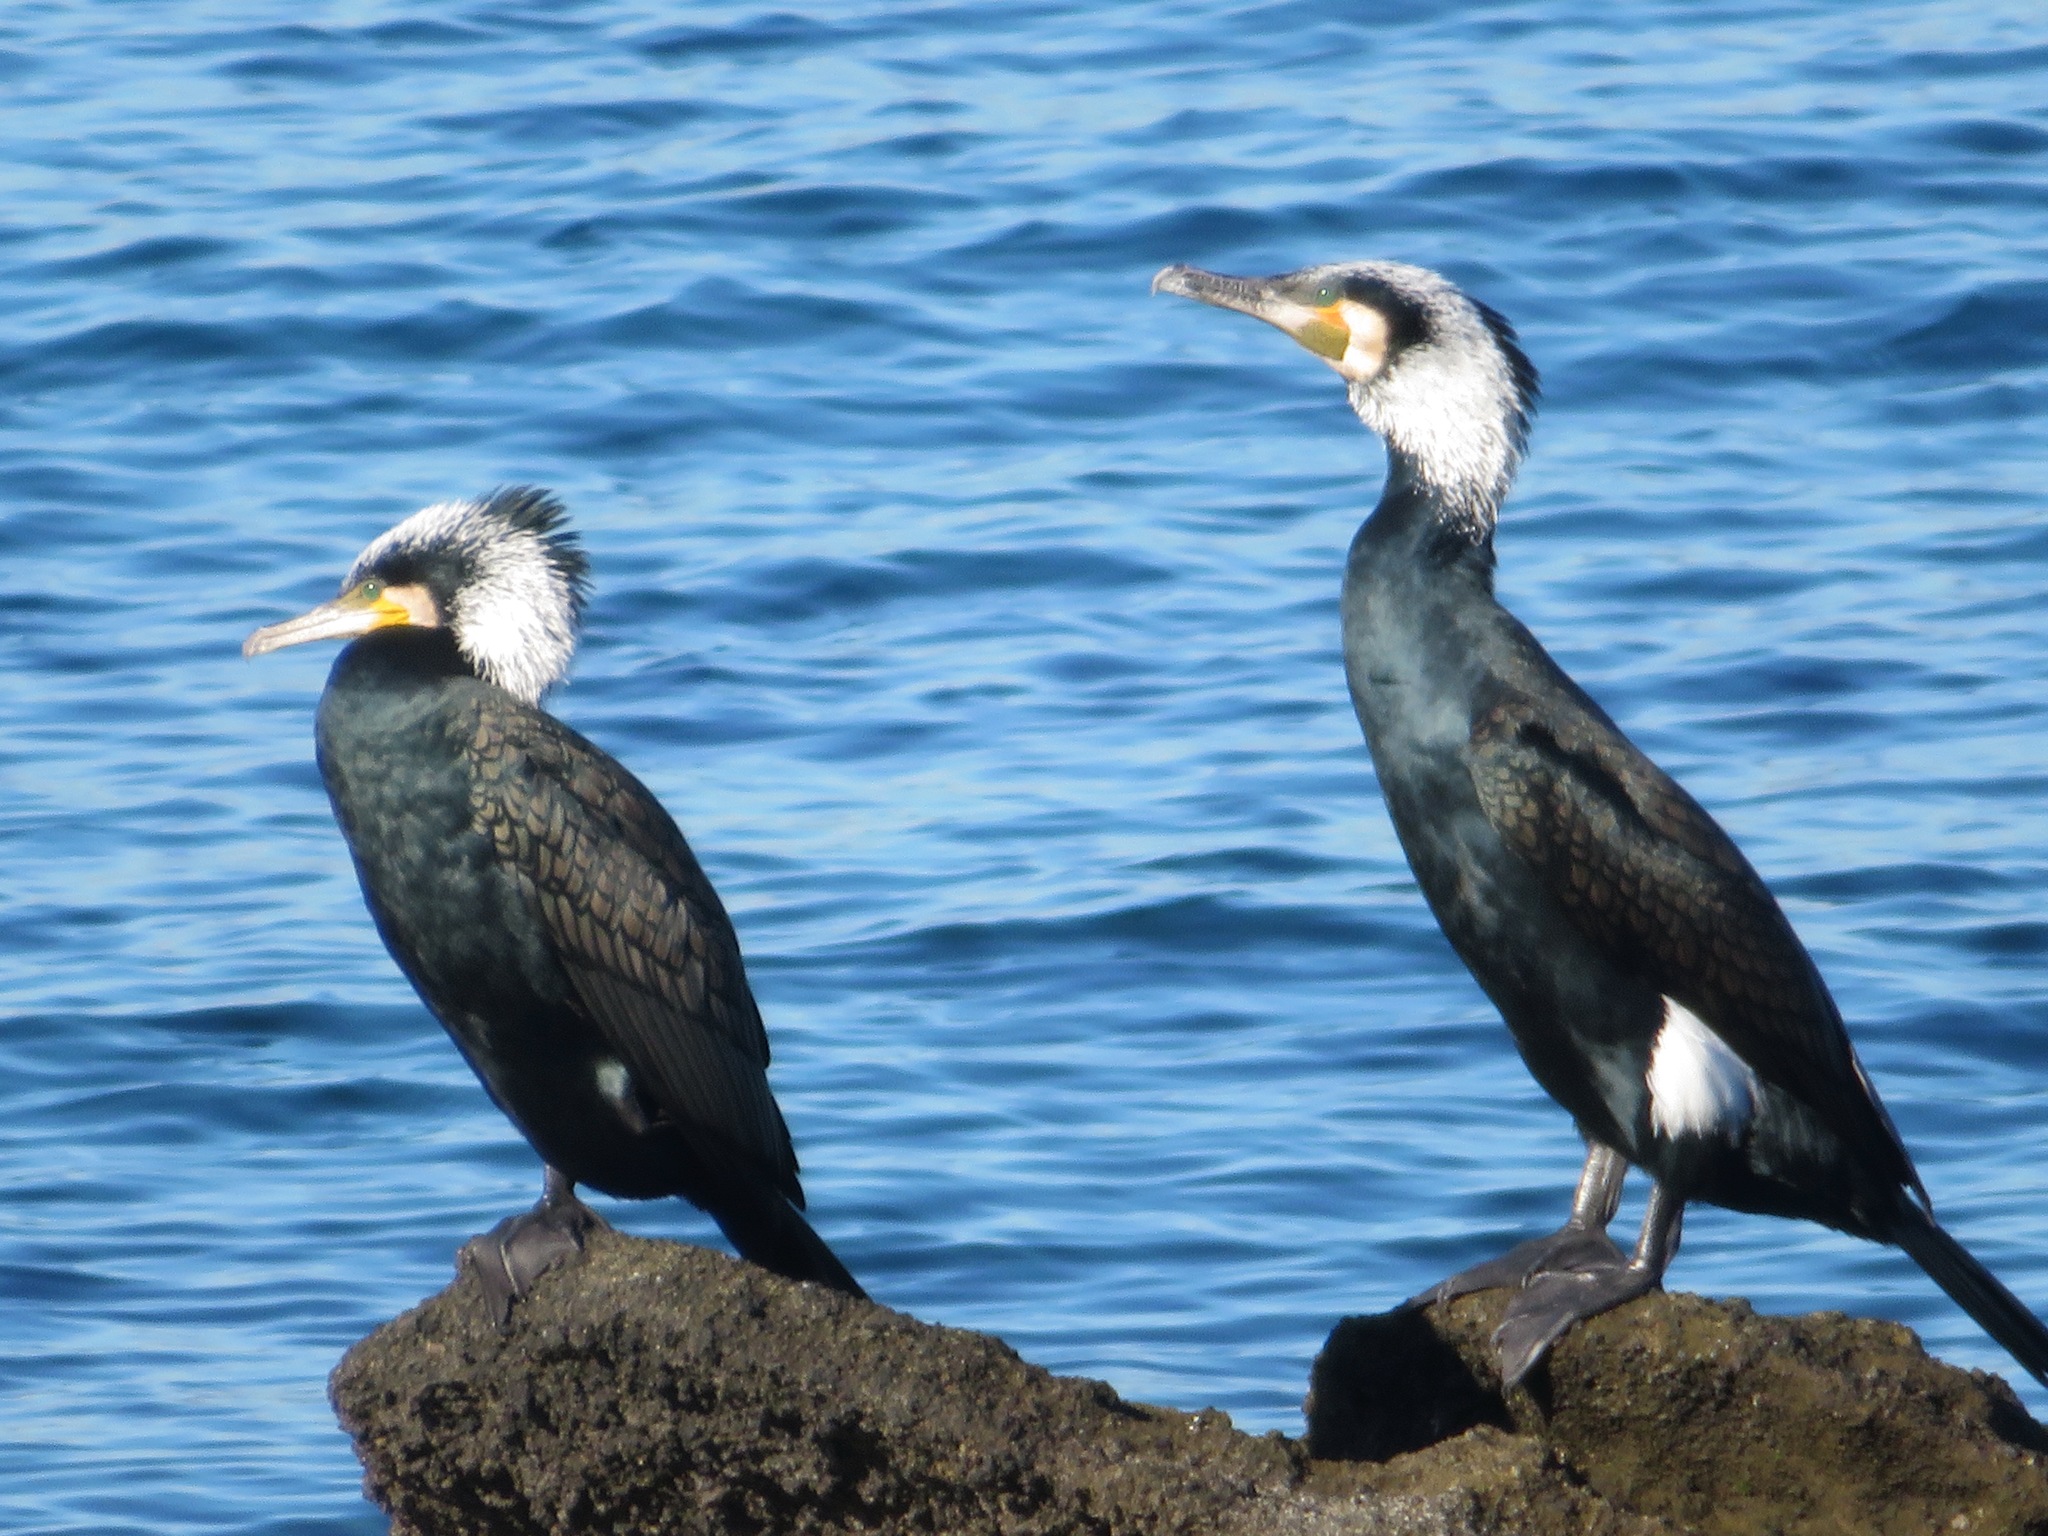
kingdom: Animalia
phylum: Chordata
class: Aves
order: Suliformes
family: Phalacrocoracidae
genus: Phalacrocorax
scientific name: Phalacrocorax carbo
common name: Great cormorant
